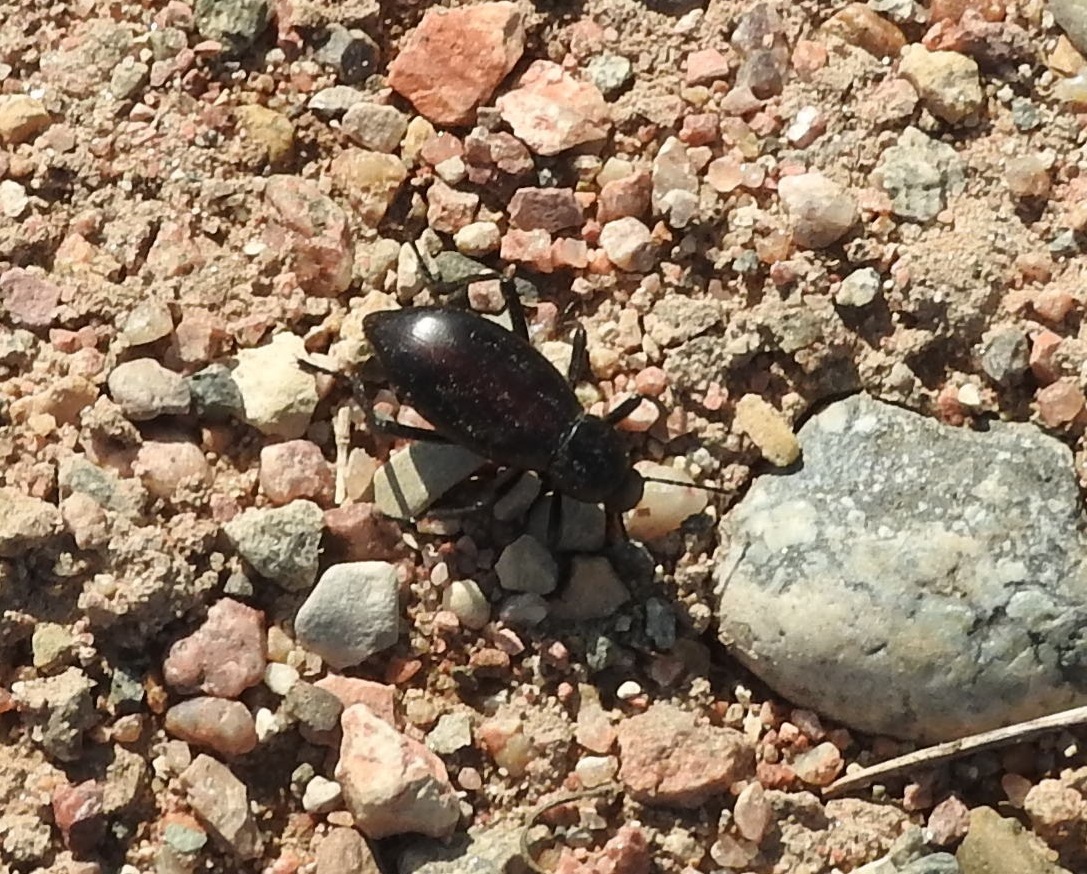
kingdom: Animalia
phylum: Arthropoda
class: Insecta
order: Coleoptera
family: Tenebrionidae
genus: Eleodes
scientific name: Eleodes longicollis
